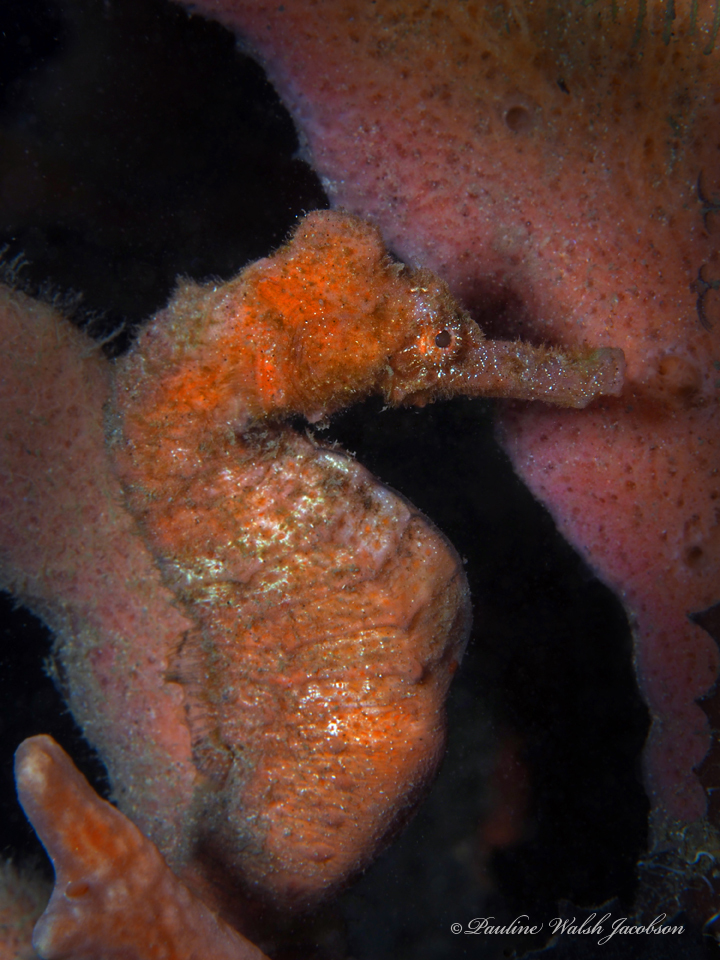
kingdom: Animalia
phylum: Chordata
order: Syngnathiformes
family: Syngnathidae
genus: Hippocampus
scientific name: Hippocampus reidi
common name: Slender seahorse
